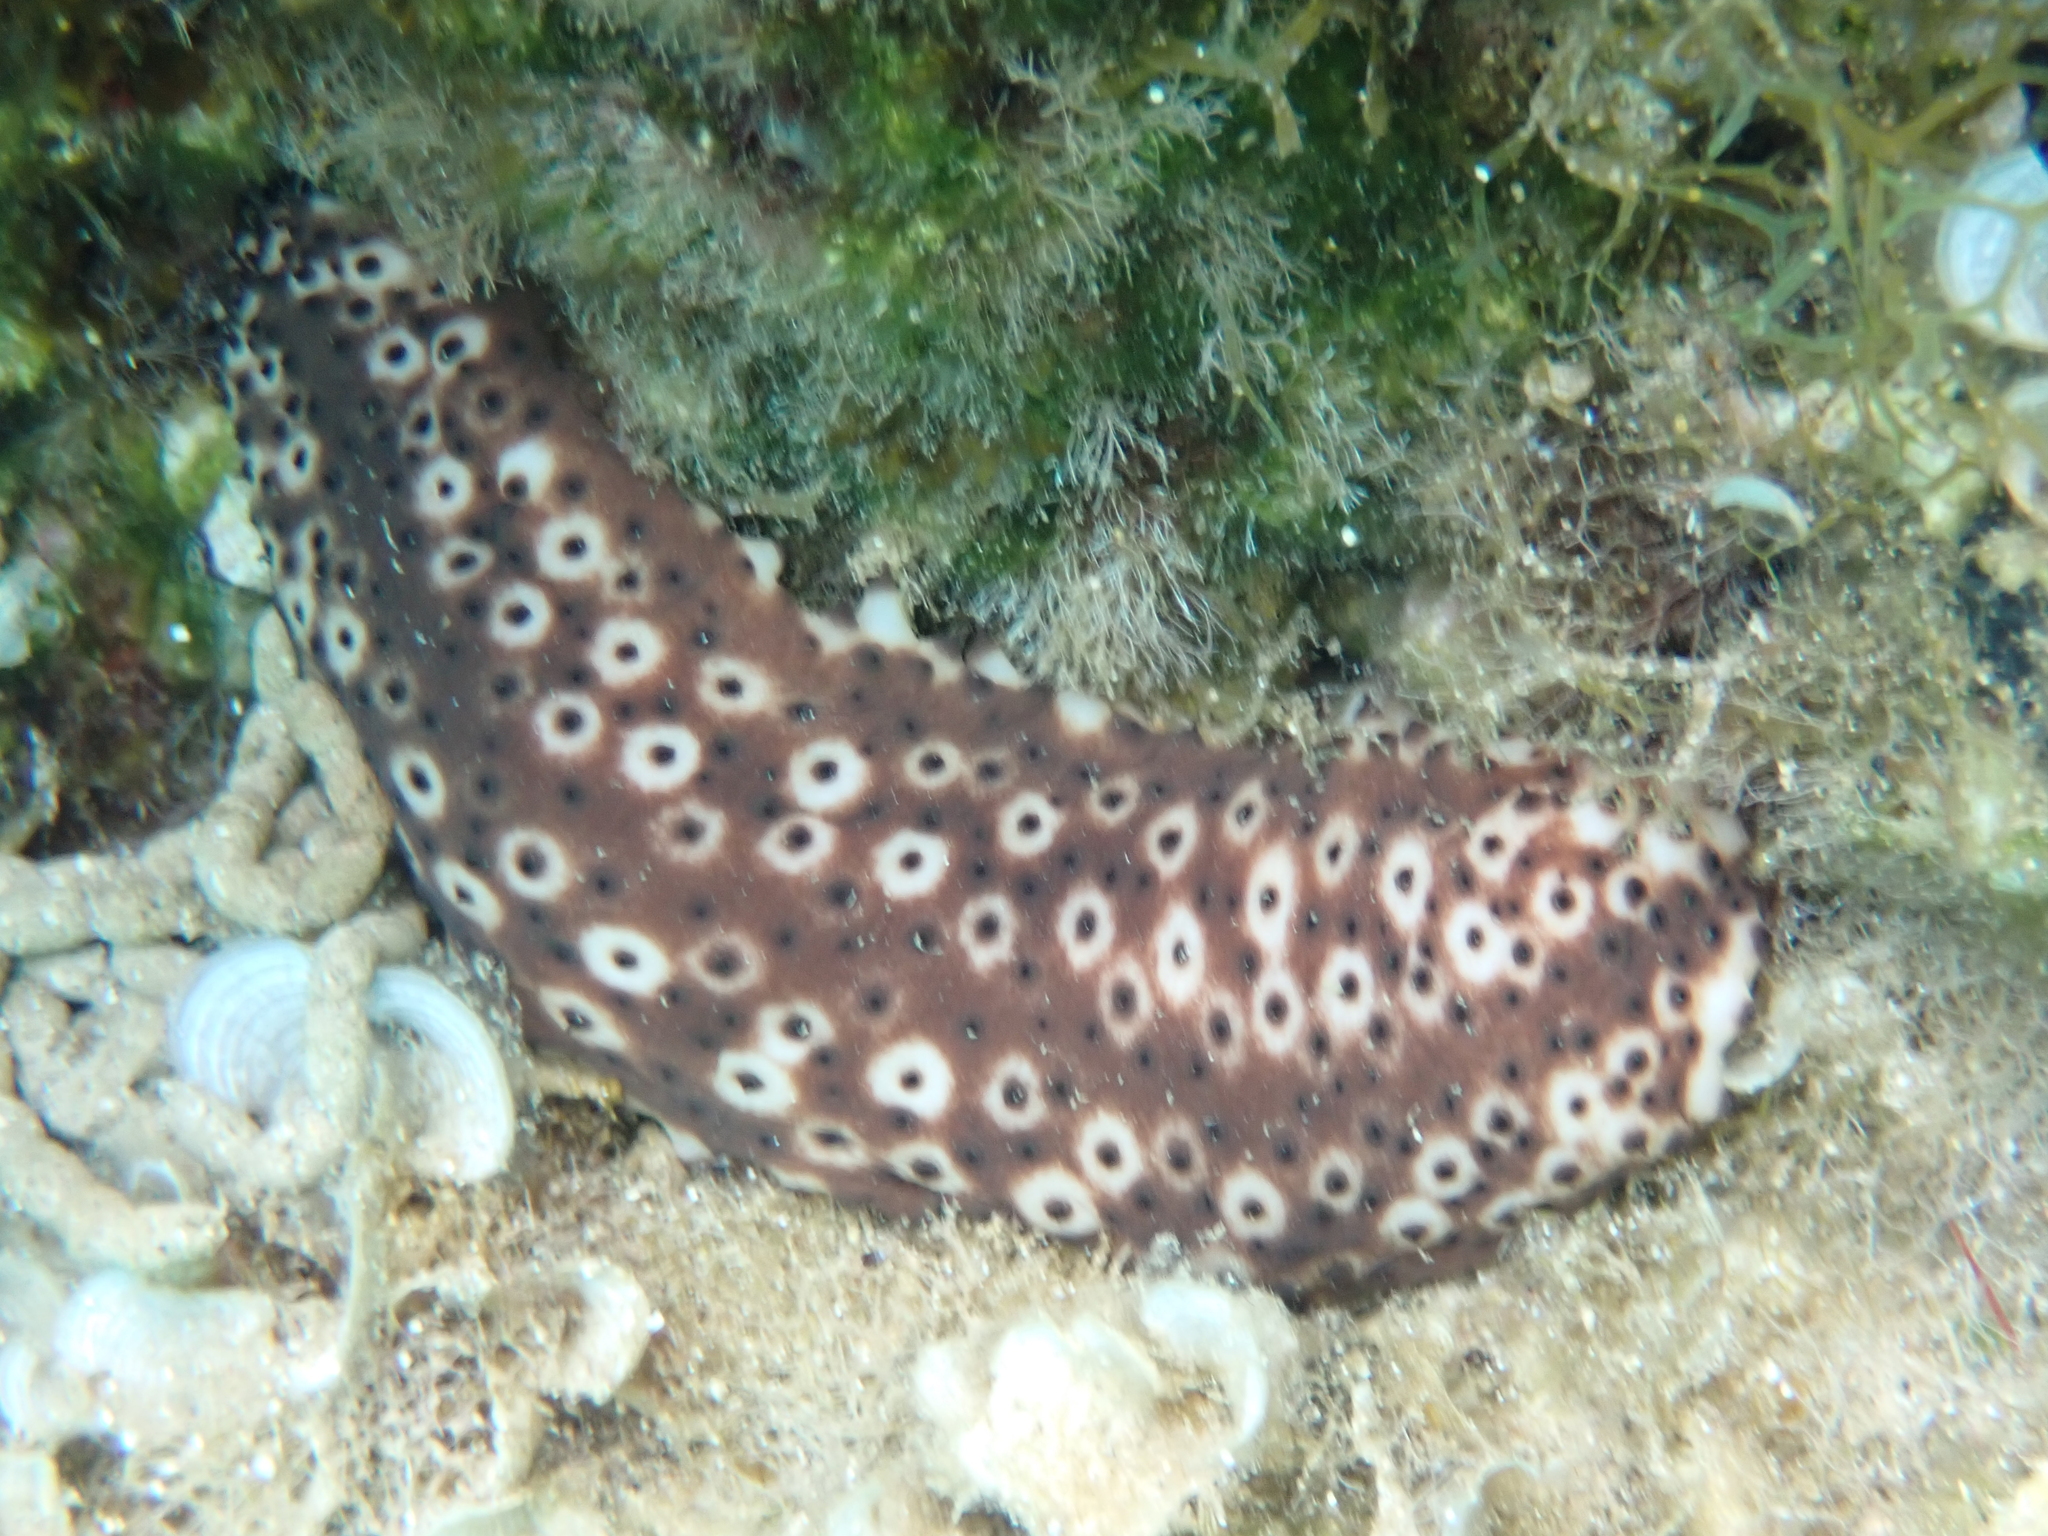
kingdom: Animalia
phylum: Echinodermata
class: Holothuroidea
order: Holothuriida
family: Holothuriidae
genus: Holothuria
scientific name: Holothuria sanctori
